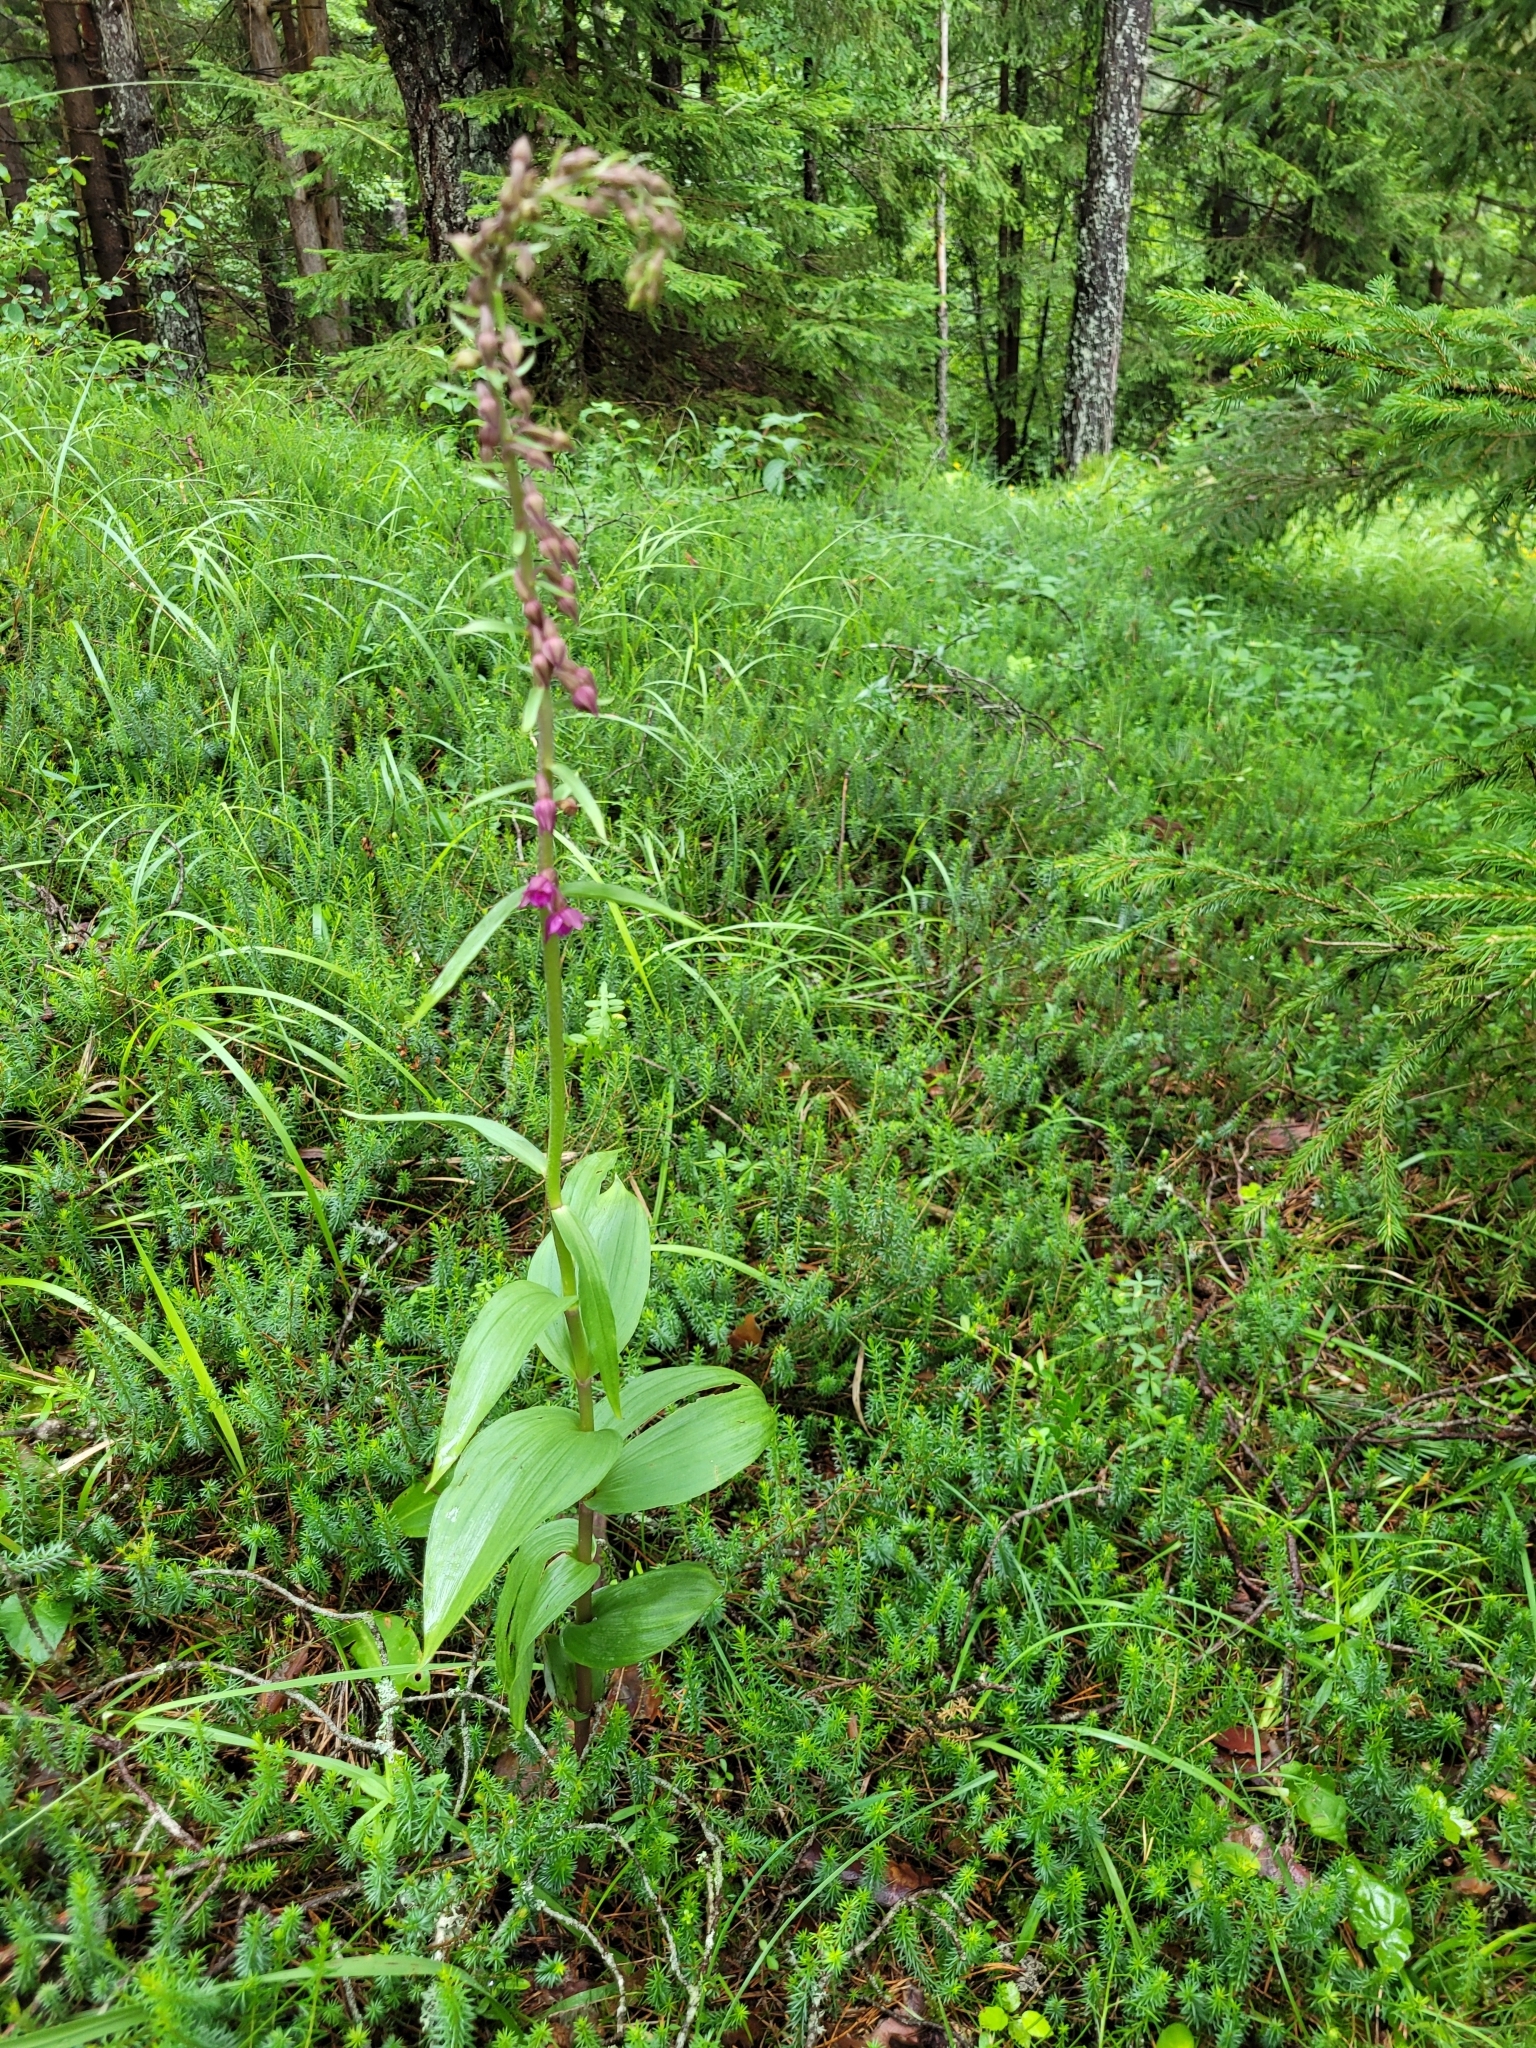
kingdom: Plantae
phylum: Tracheophyta
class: Liliopsida
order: Asparagales
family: Orchidaceae
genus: Epipactis
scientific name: Epipactis atrorubens
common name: Dark-red helleborine
